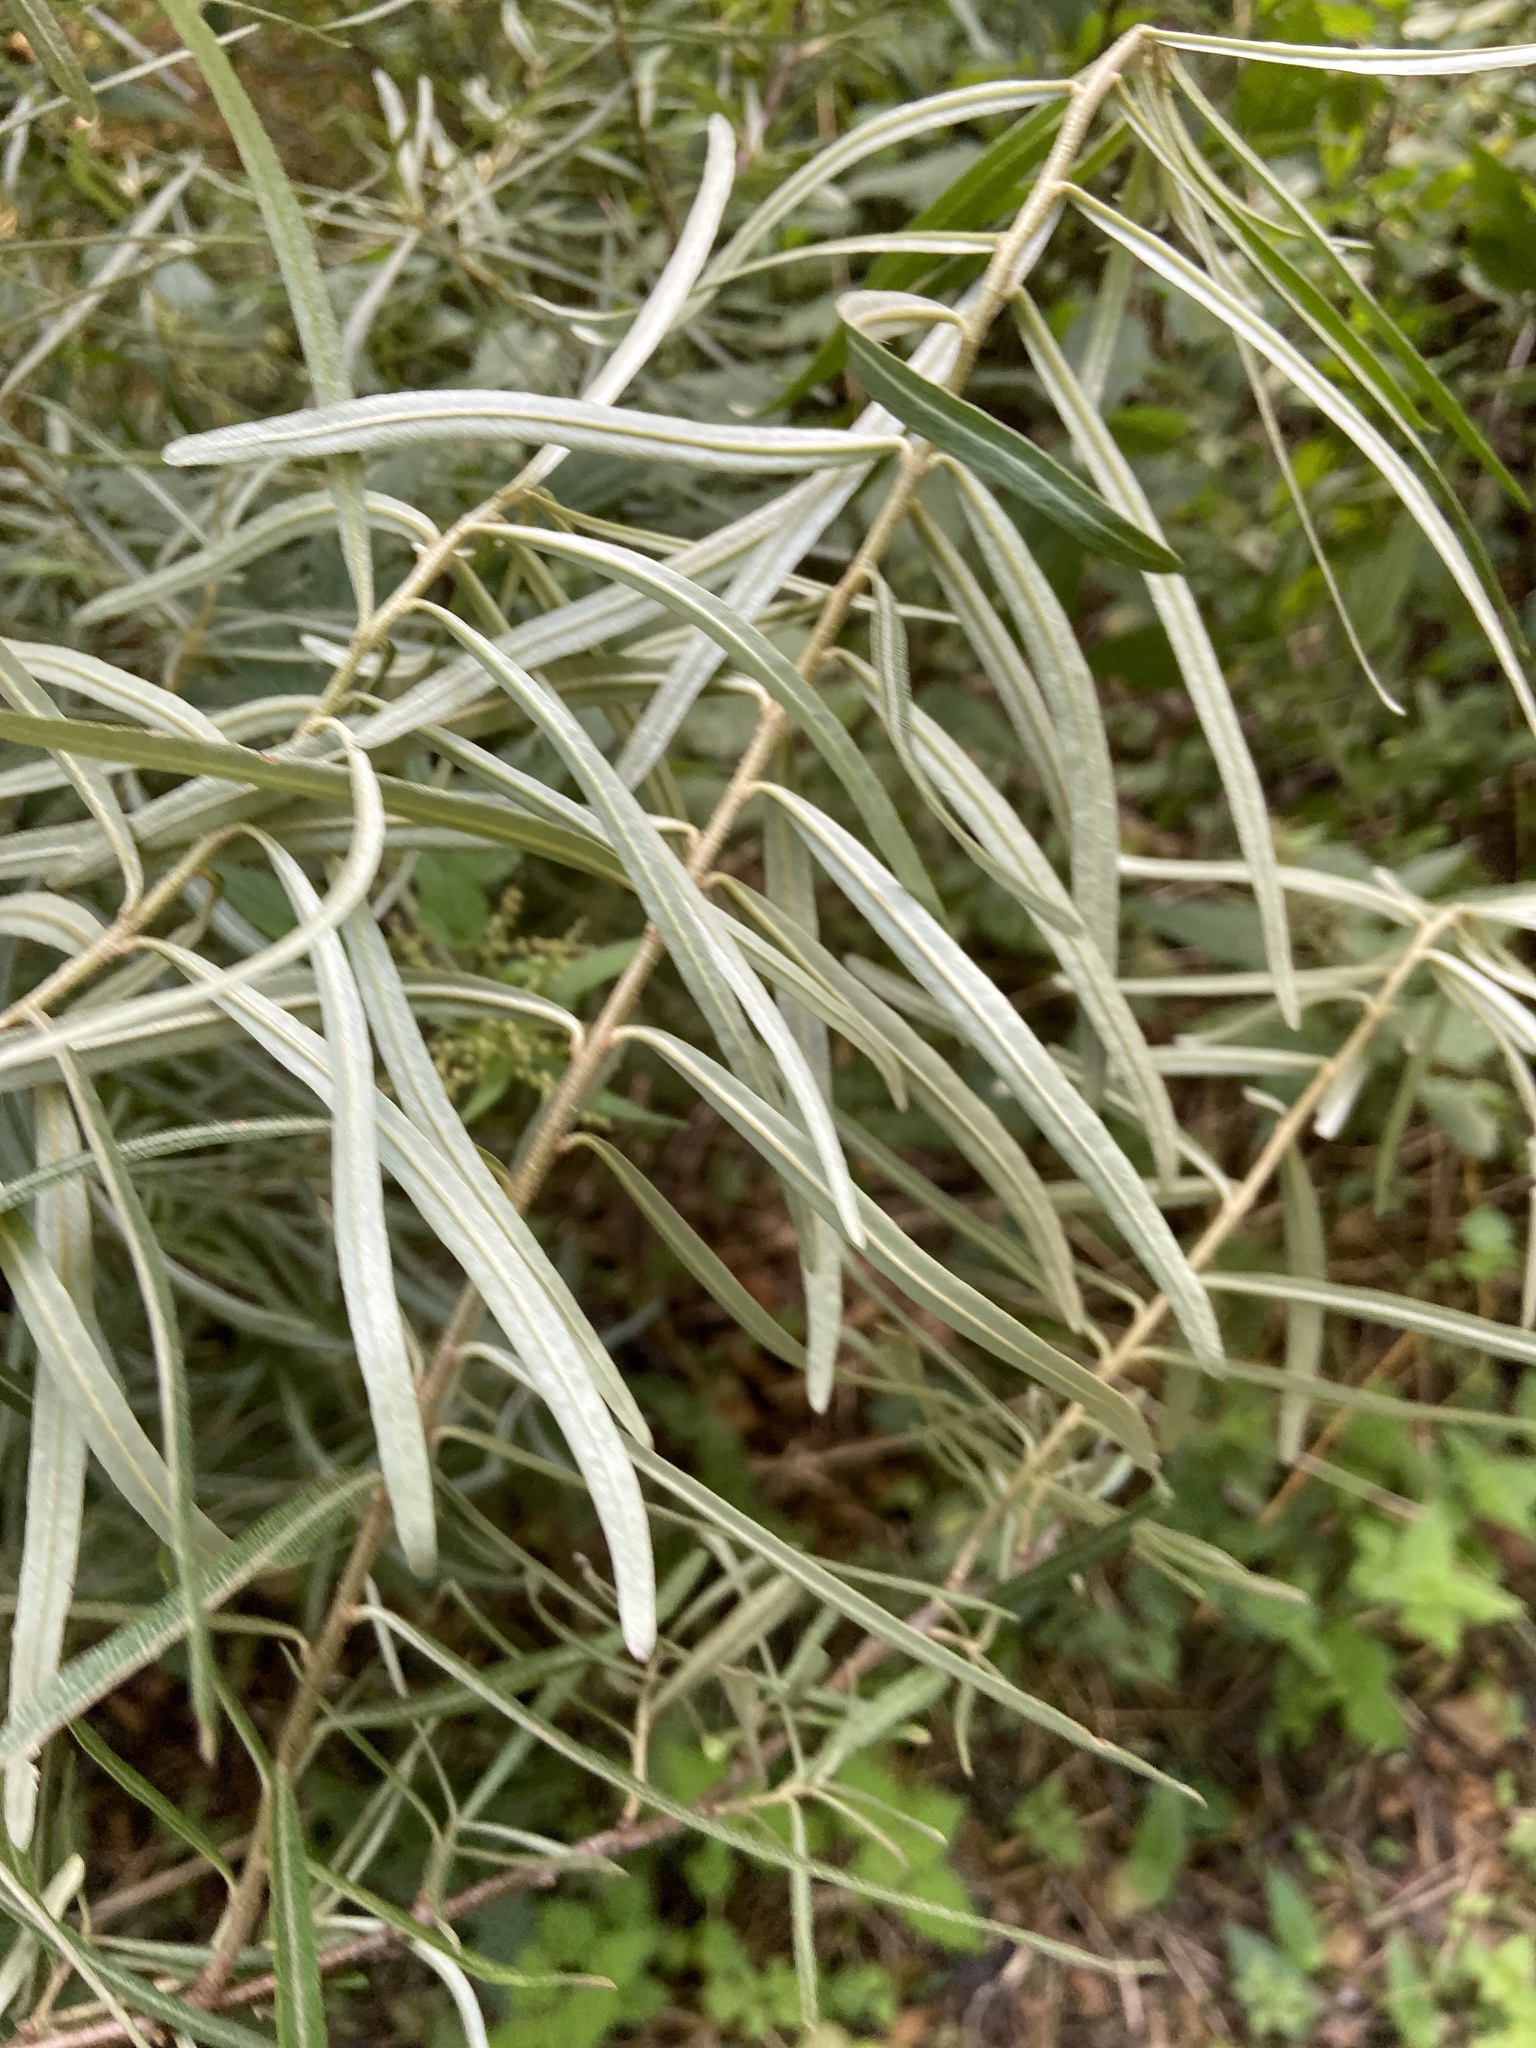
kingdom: Plantae
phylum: Tracheophyta
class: Magnoliopsida
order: Rosales
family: Elaeagnaceae
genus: Hippophae
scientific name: Hippophae rhamnoides
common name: Sea-buckthorn
